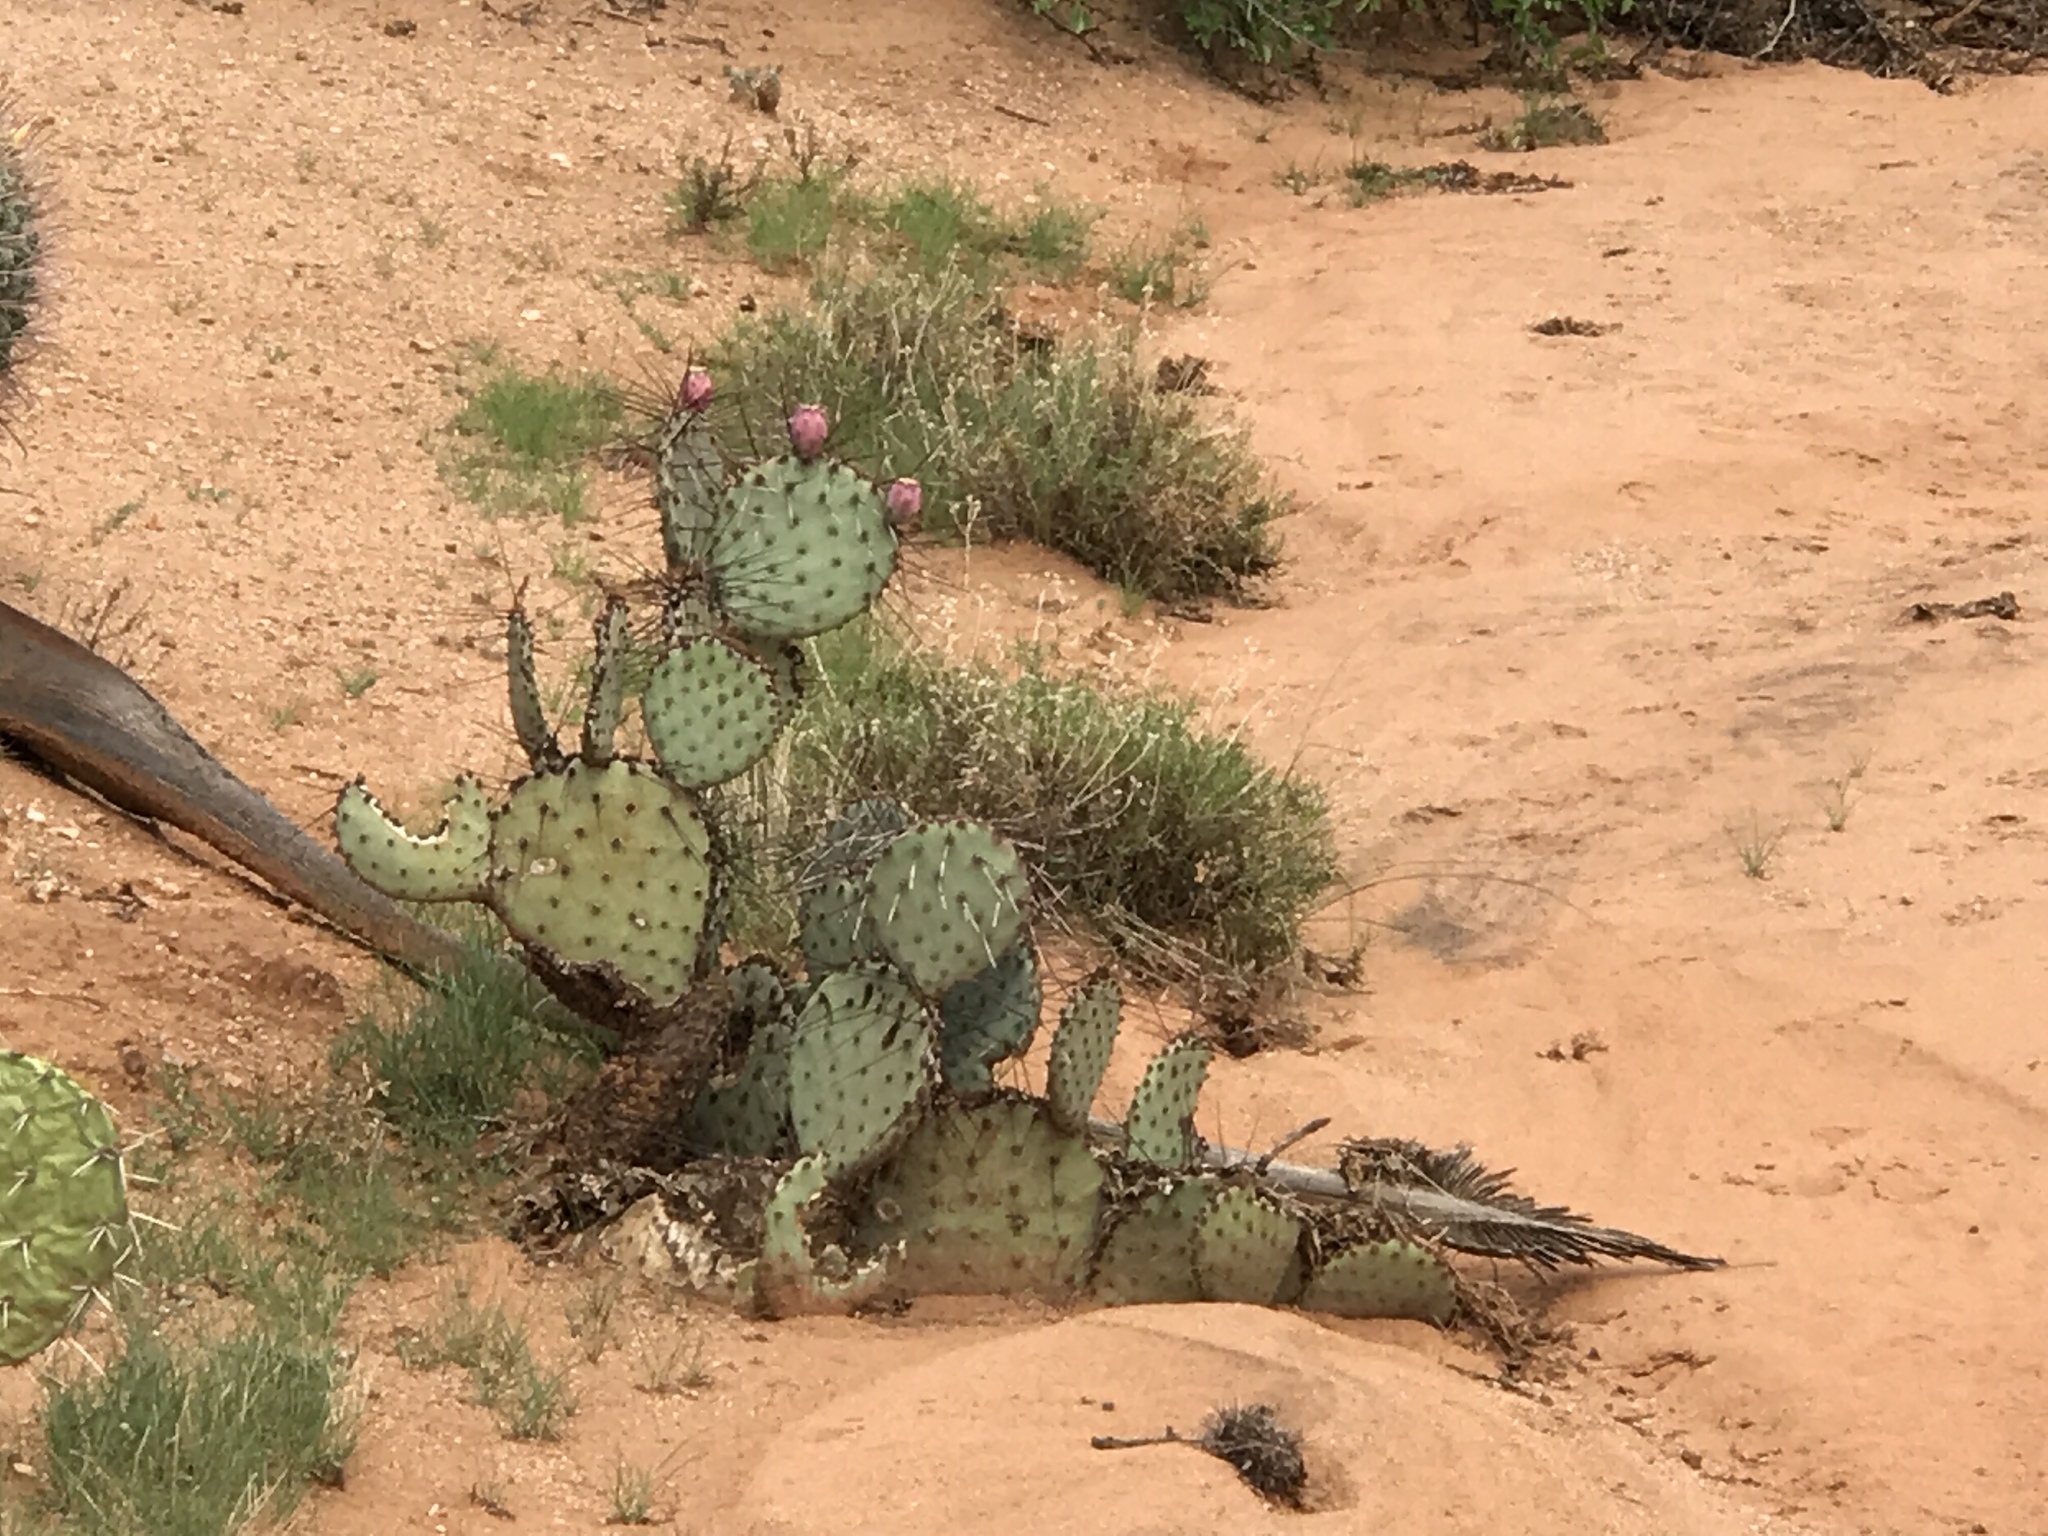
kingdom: Plantae
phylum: Tracheophyta
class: Magnoliopsida
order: Caryophyllales
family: Cactaceae
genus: Opuntia
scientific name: Opuntia macrocentra
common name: Purple prickly-pear
